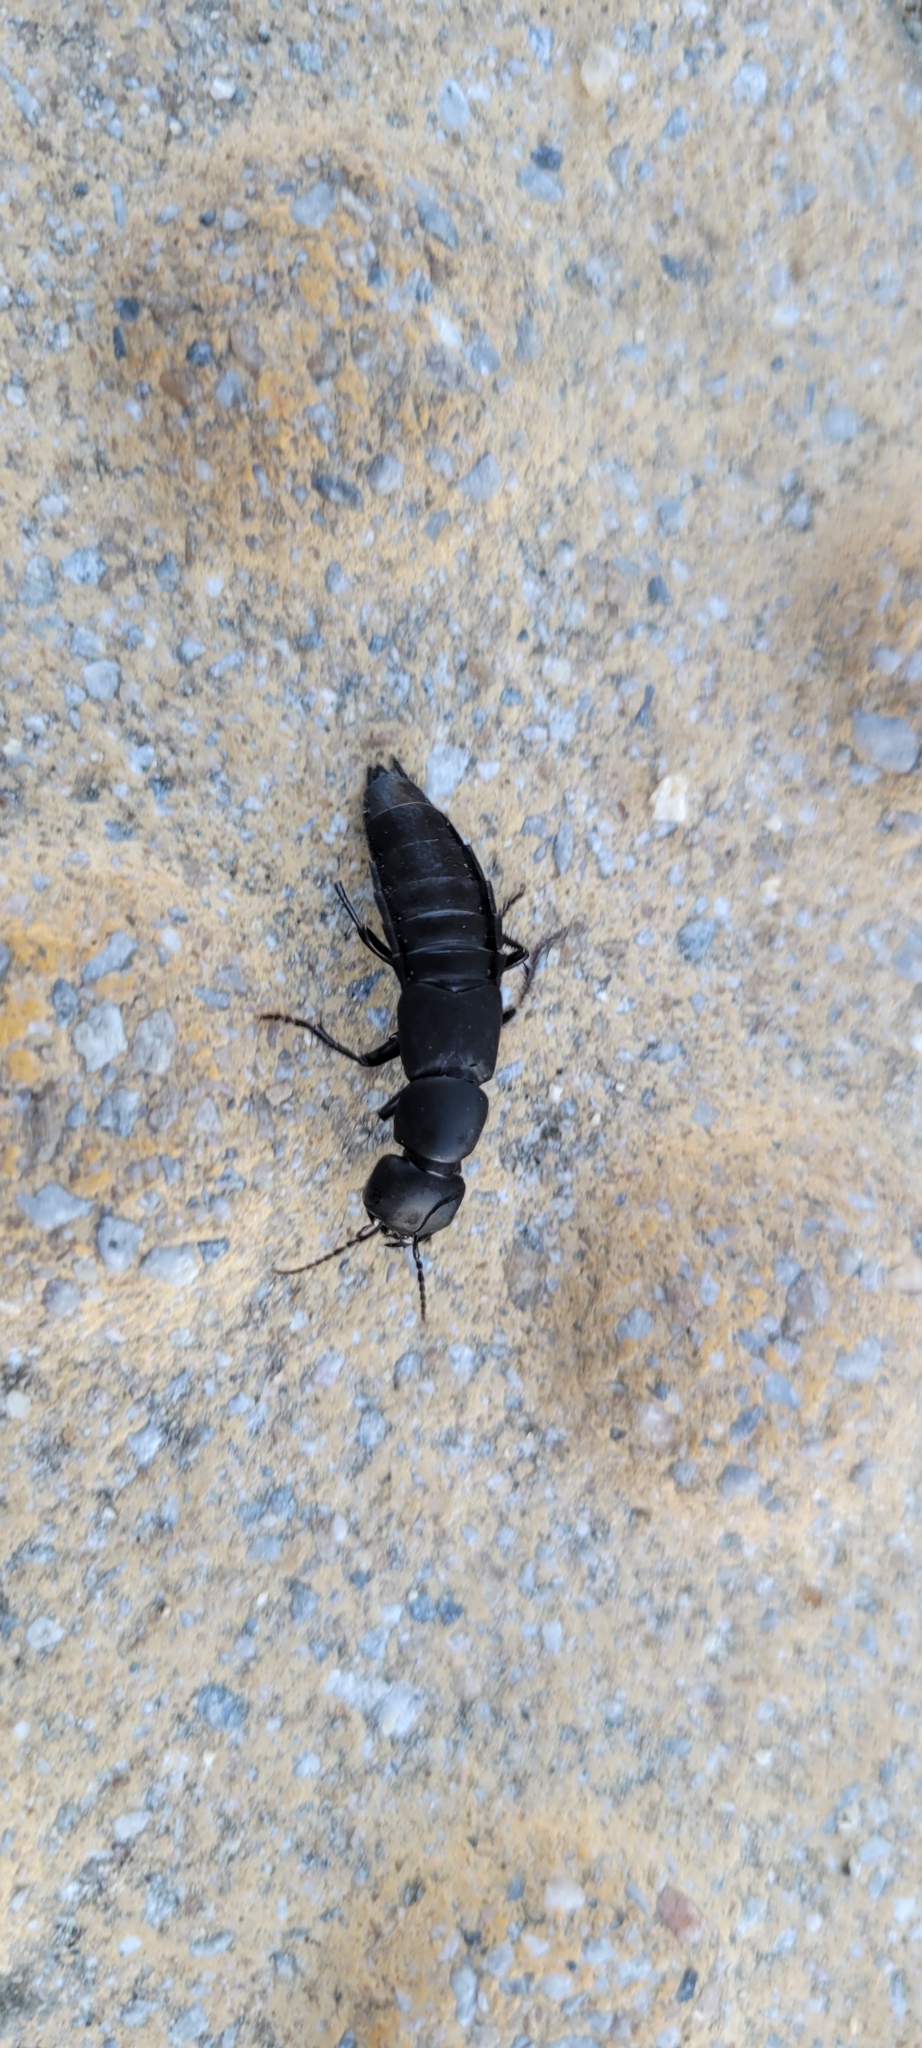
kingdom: Animalia
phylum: Arthropoda
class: Insecta
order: Coleoptera
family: Staphylinidae
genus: Ocypus
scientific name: Ocypus olens
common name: Devil's coach-horse
